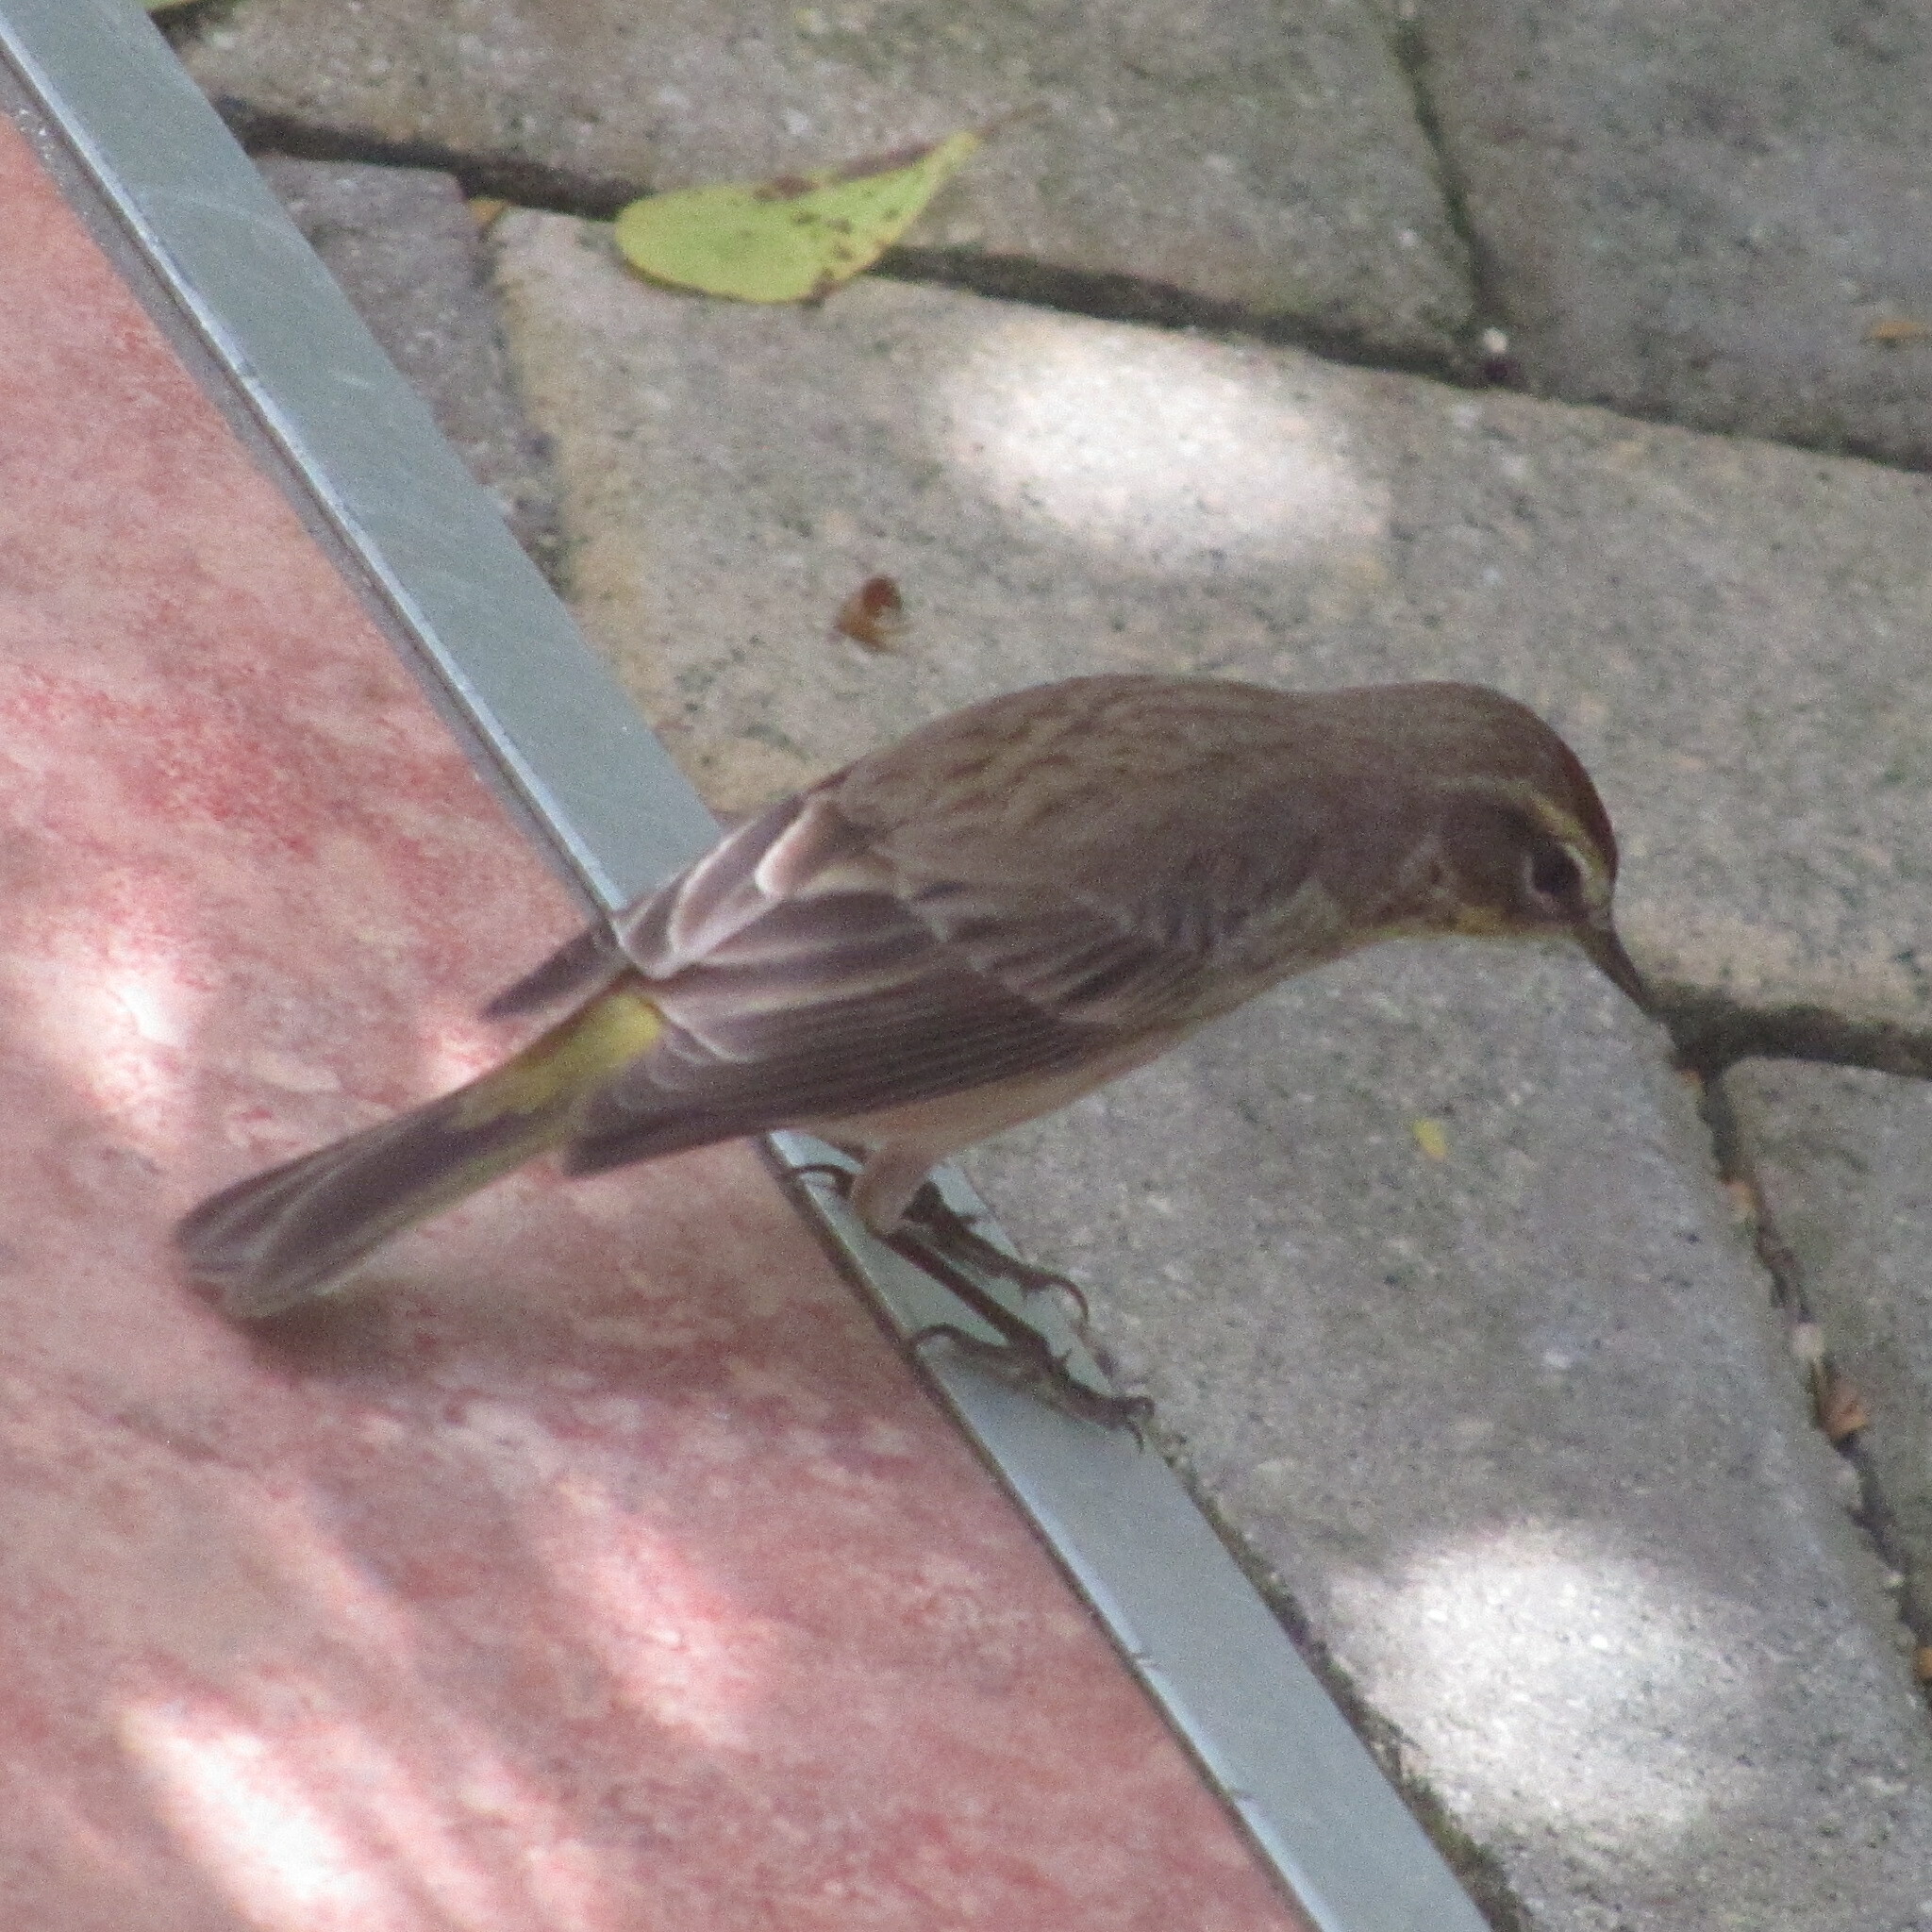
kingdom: Animalia
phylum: Chordata
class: Aves
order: Passeriformes
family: Parulidae
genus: Setophaga
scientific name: Setophaga palmarum
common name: Palm warbler
